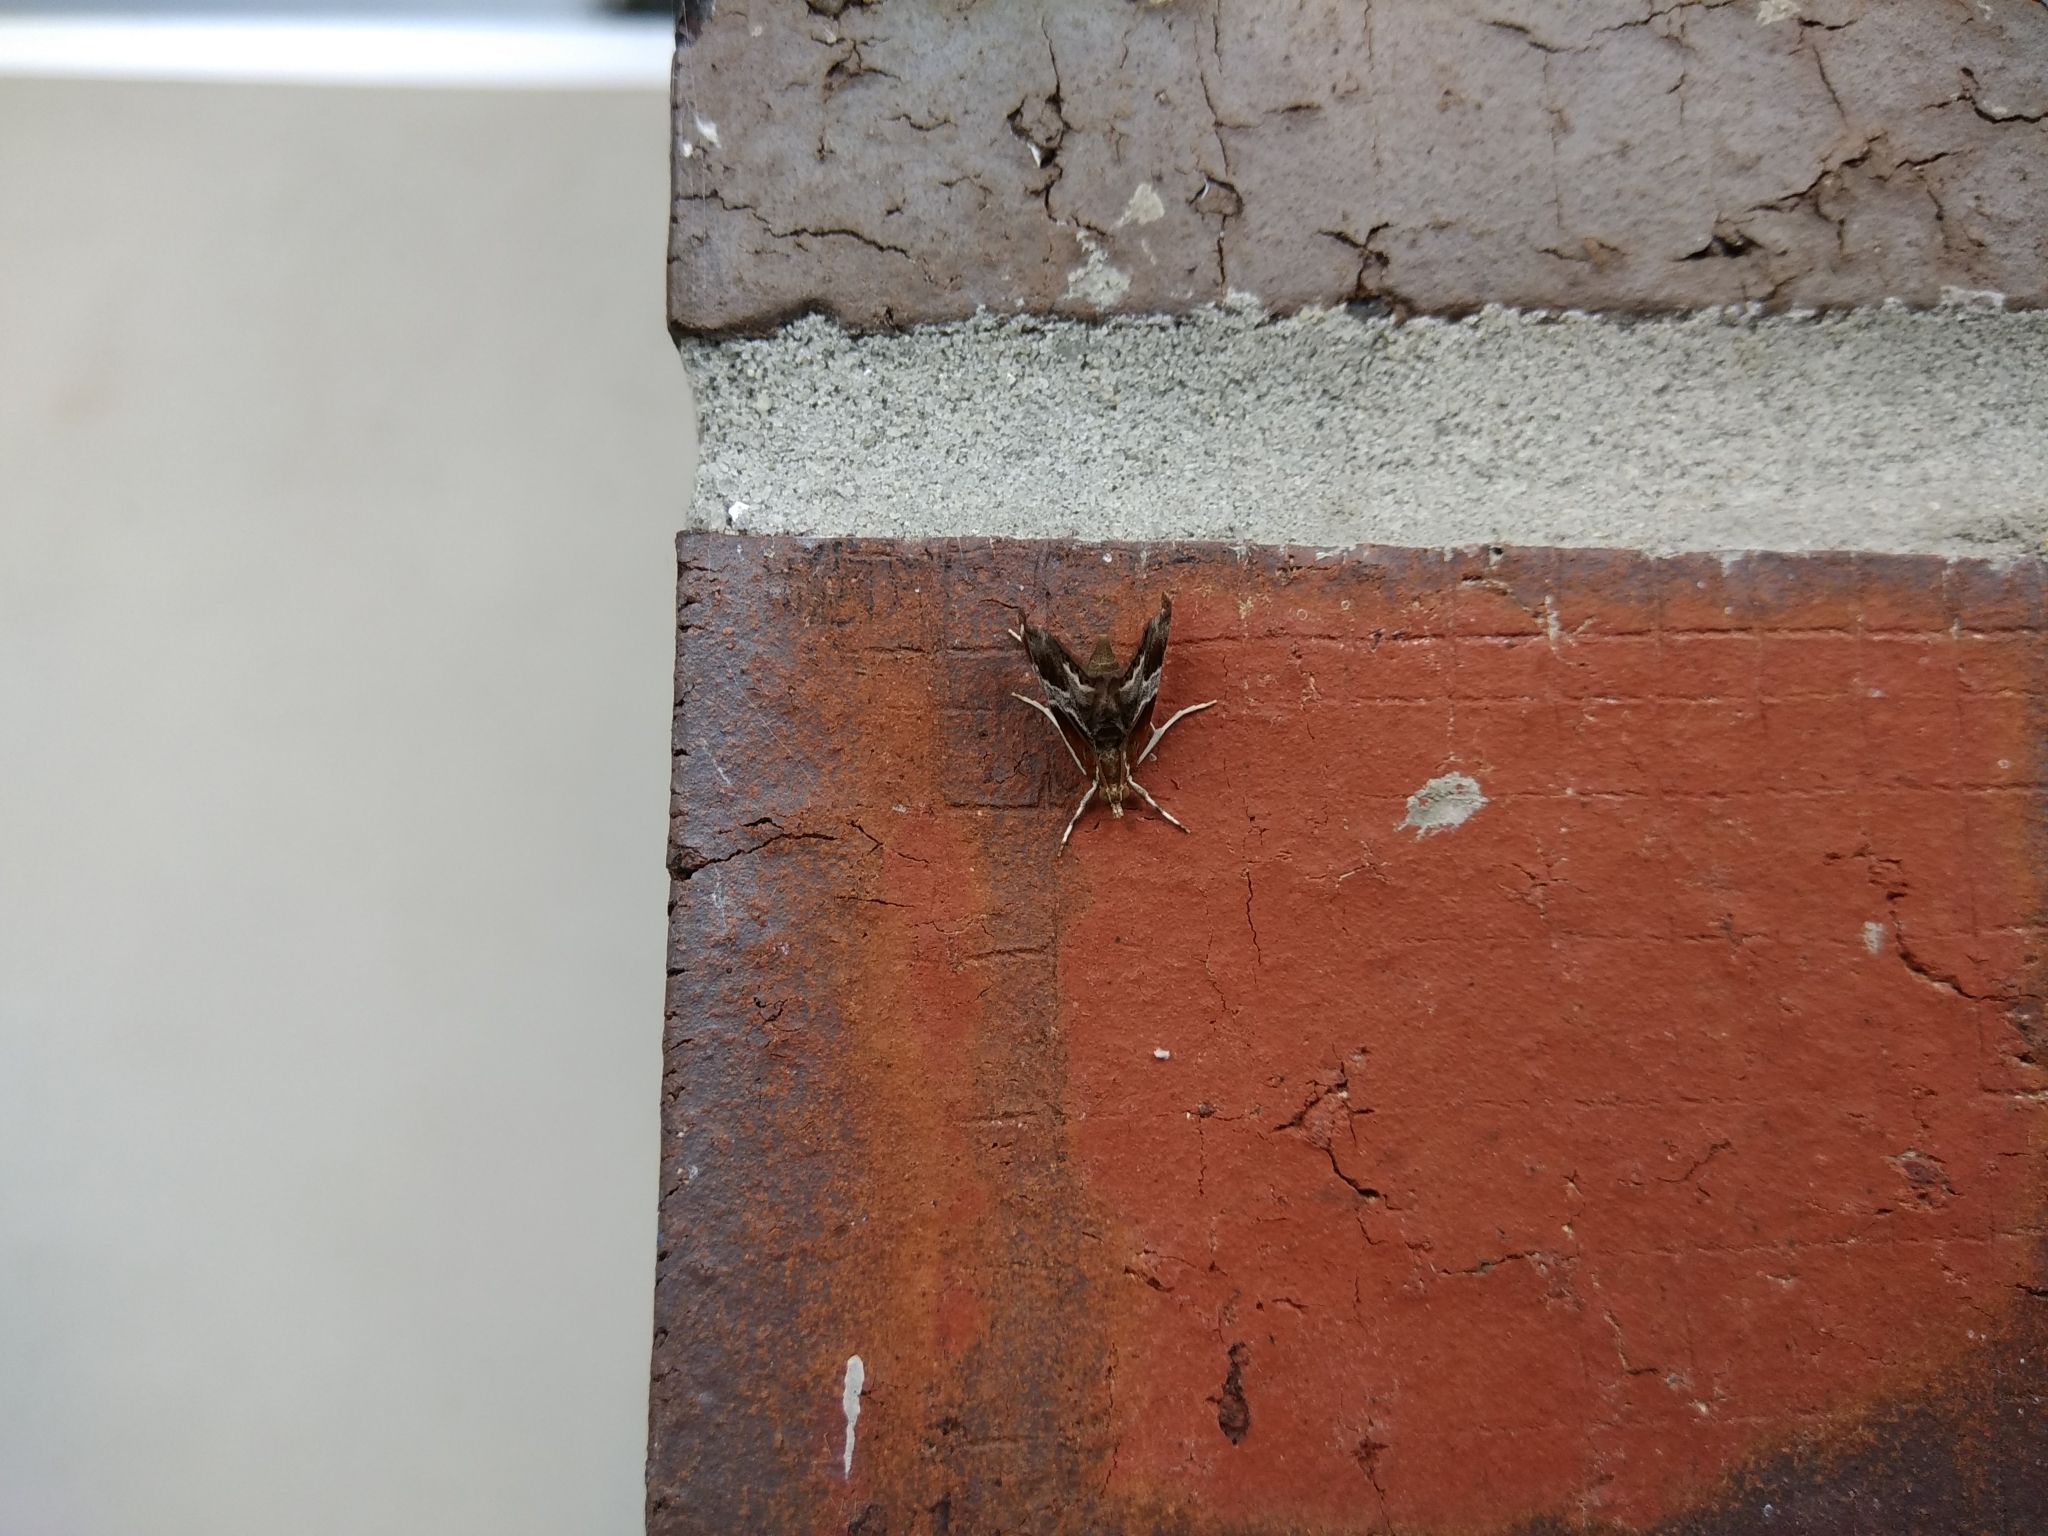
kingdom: Animalia
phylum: Arthropoda
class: Insecta
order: Lepidoptera
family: Crambidae
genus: Chalcoela
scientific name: Chalcoela pegasalis
